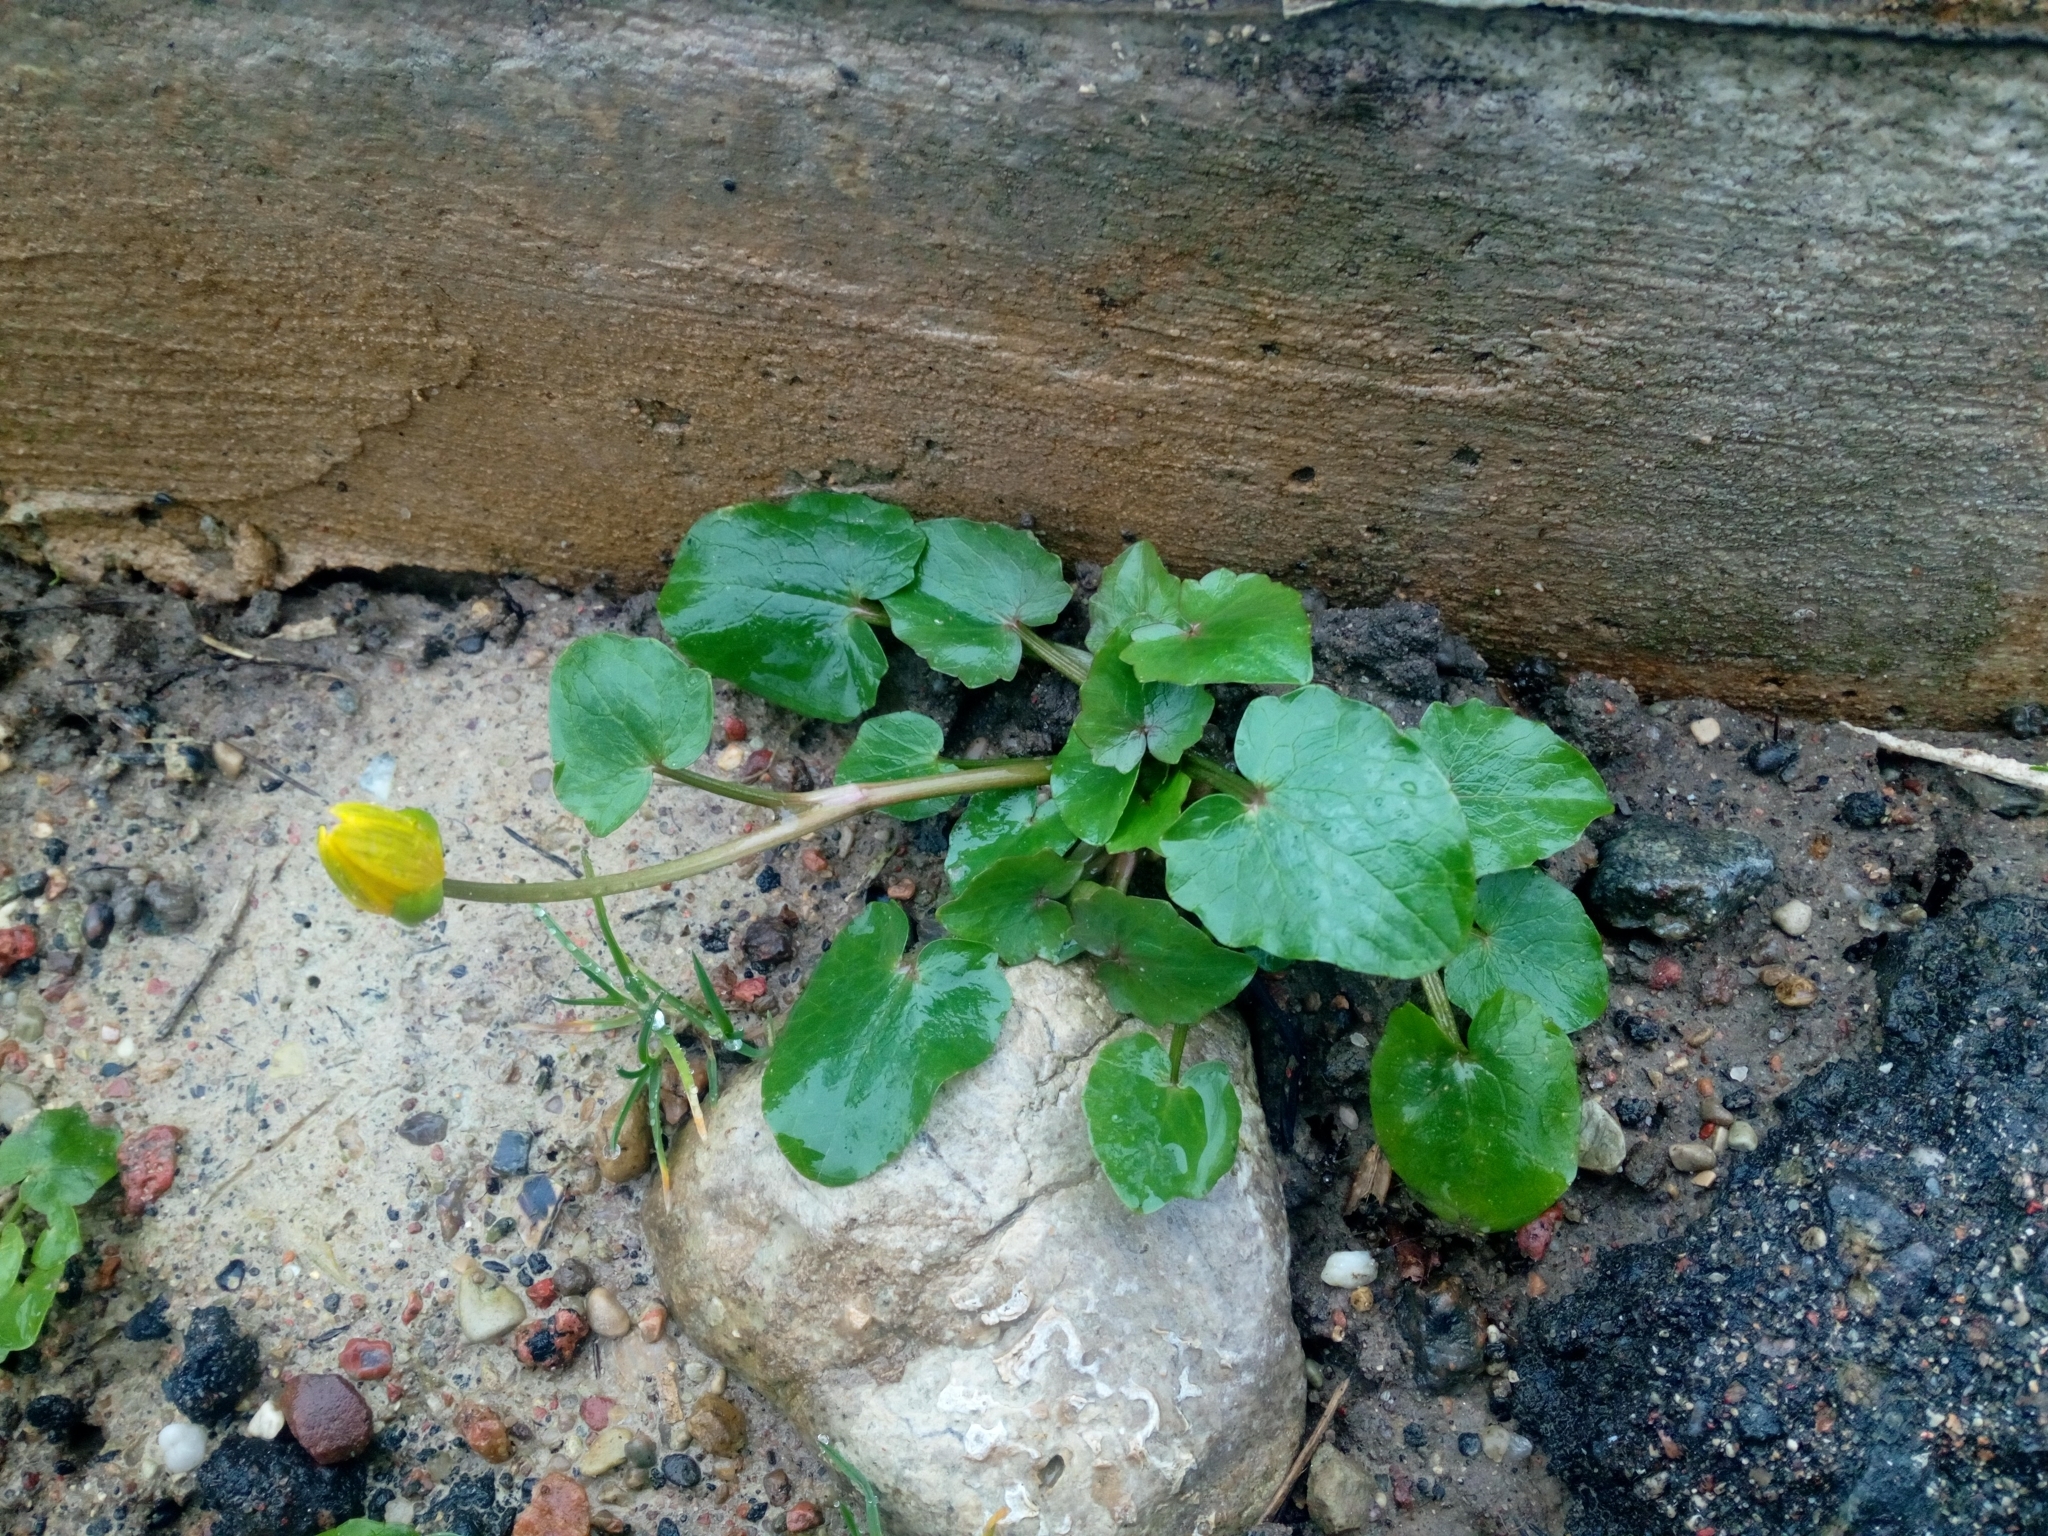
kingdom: Plantae
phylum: Tracheophyta
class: Magnoliopsida
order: Ranunculales
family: Ranunculaceae
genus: Ficaria
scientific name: Ficaria verna
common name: Lesser celandine
